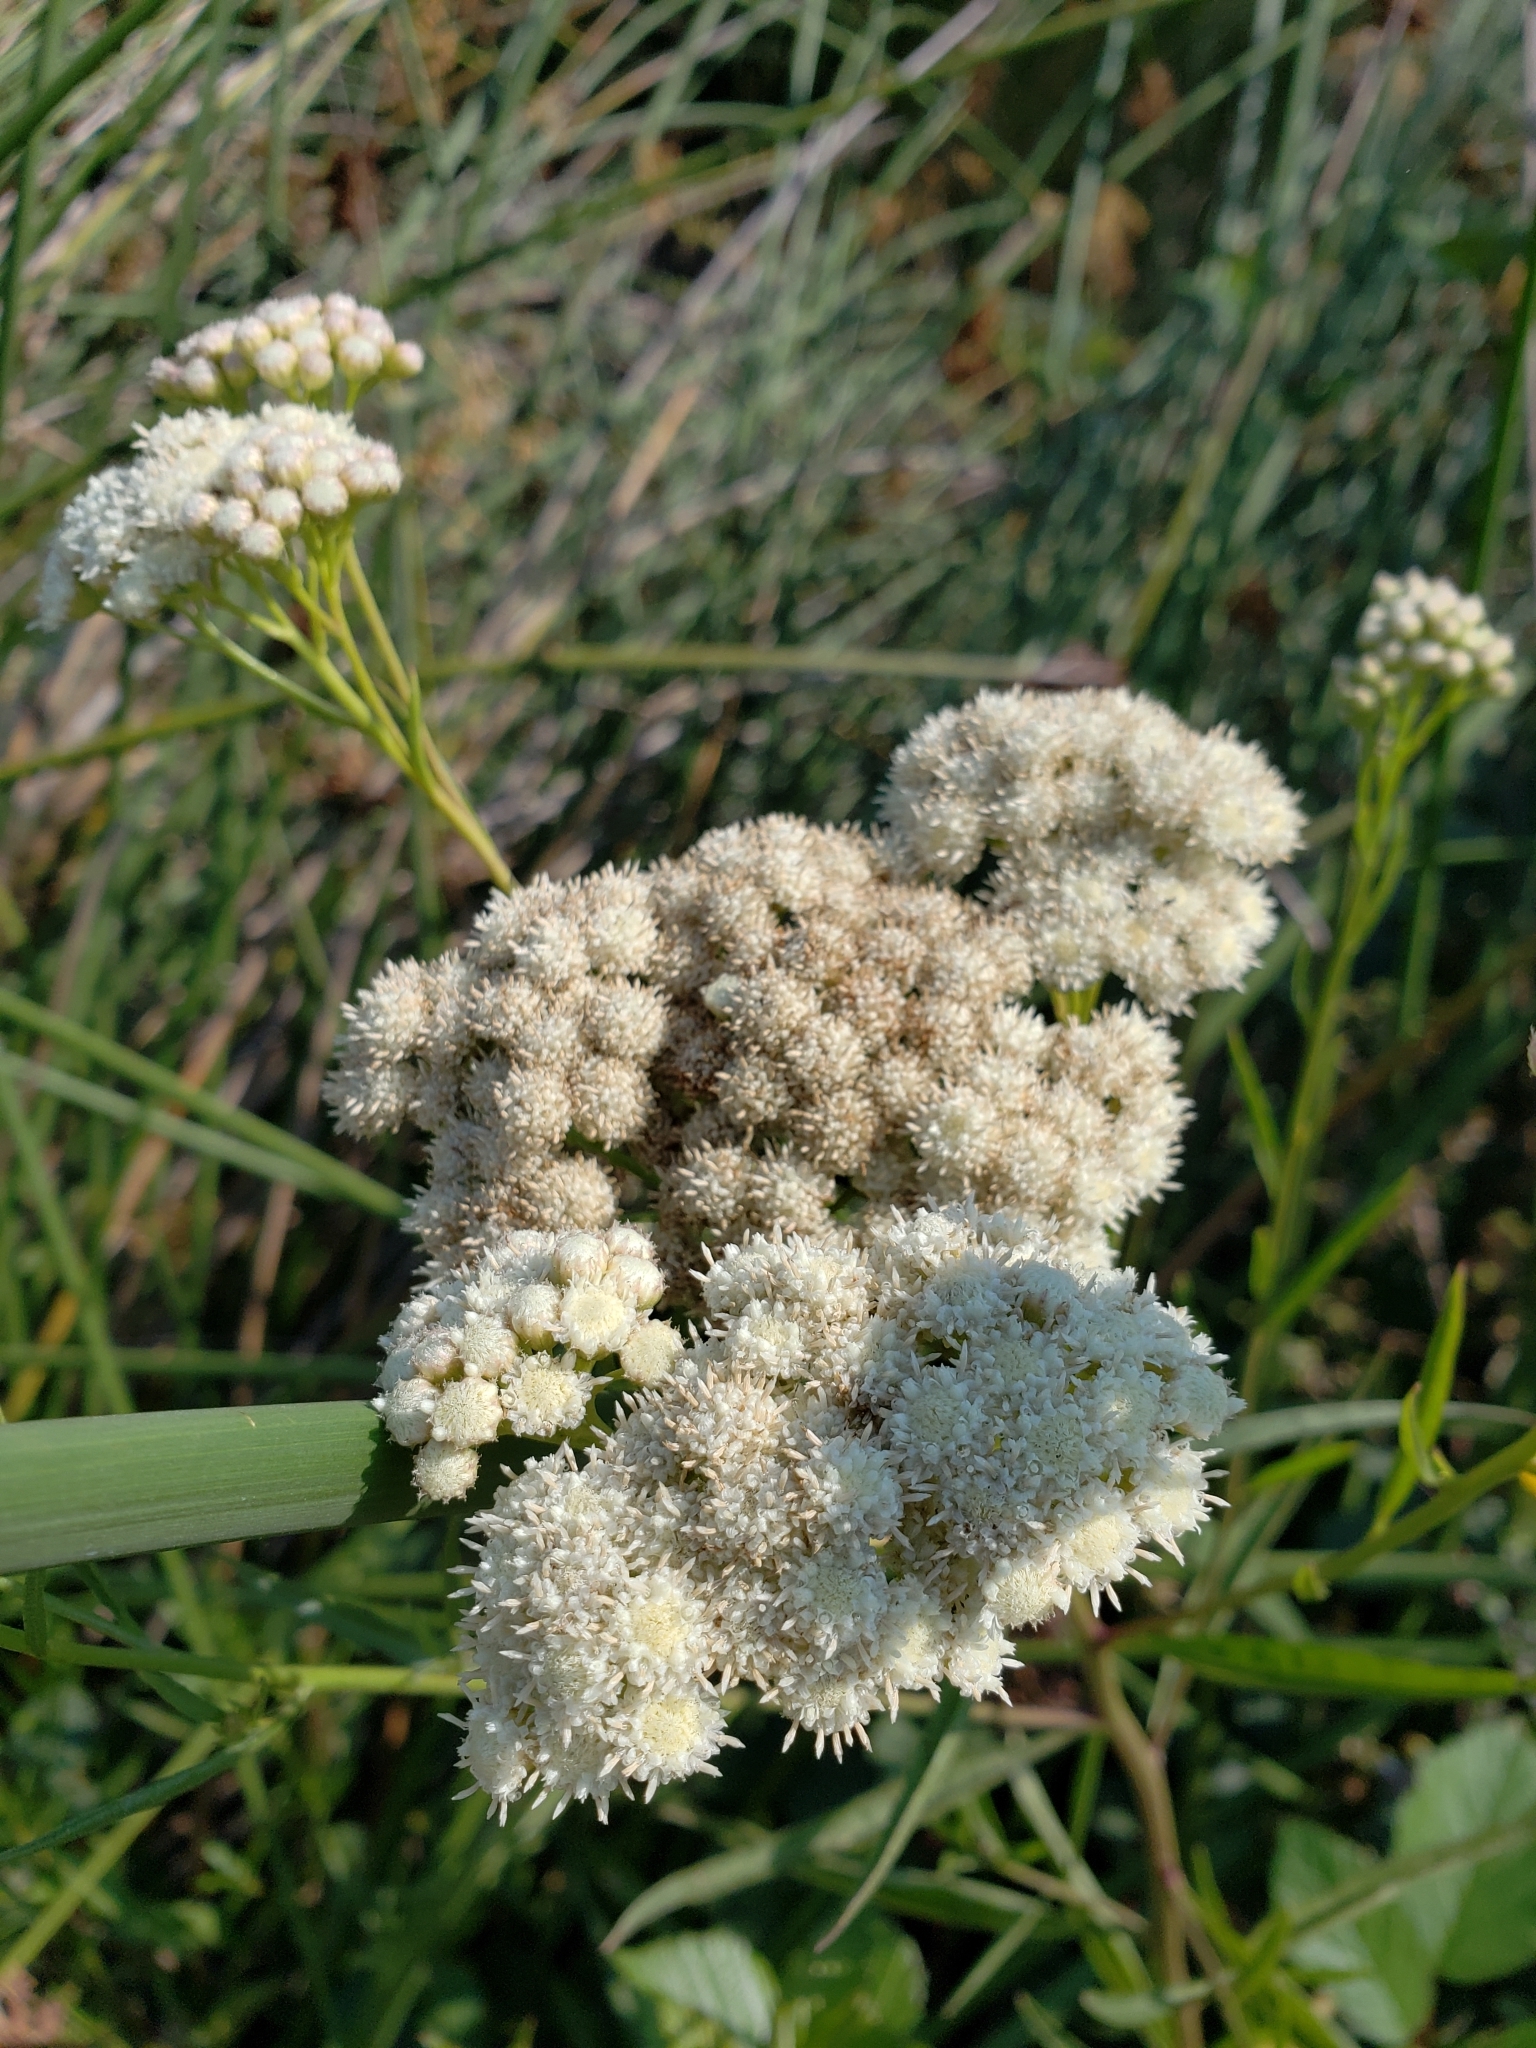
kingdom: Plantae
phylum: Tracheophyta
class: Magnoliopsida
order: Asterales
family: Asteraceae
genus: Baccharis
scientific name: Baccharis glutinosa
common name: Saltmarsh baccharis
